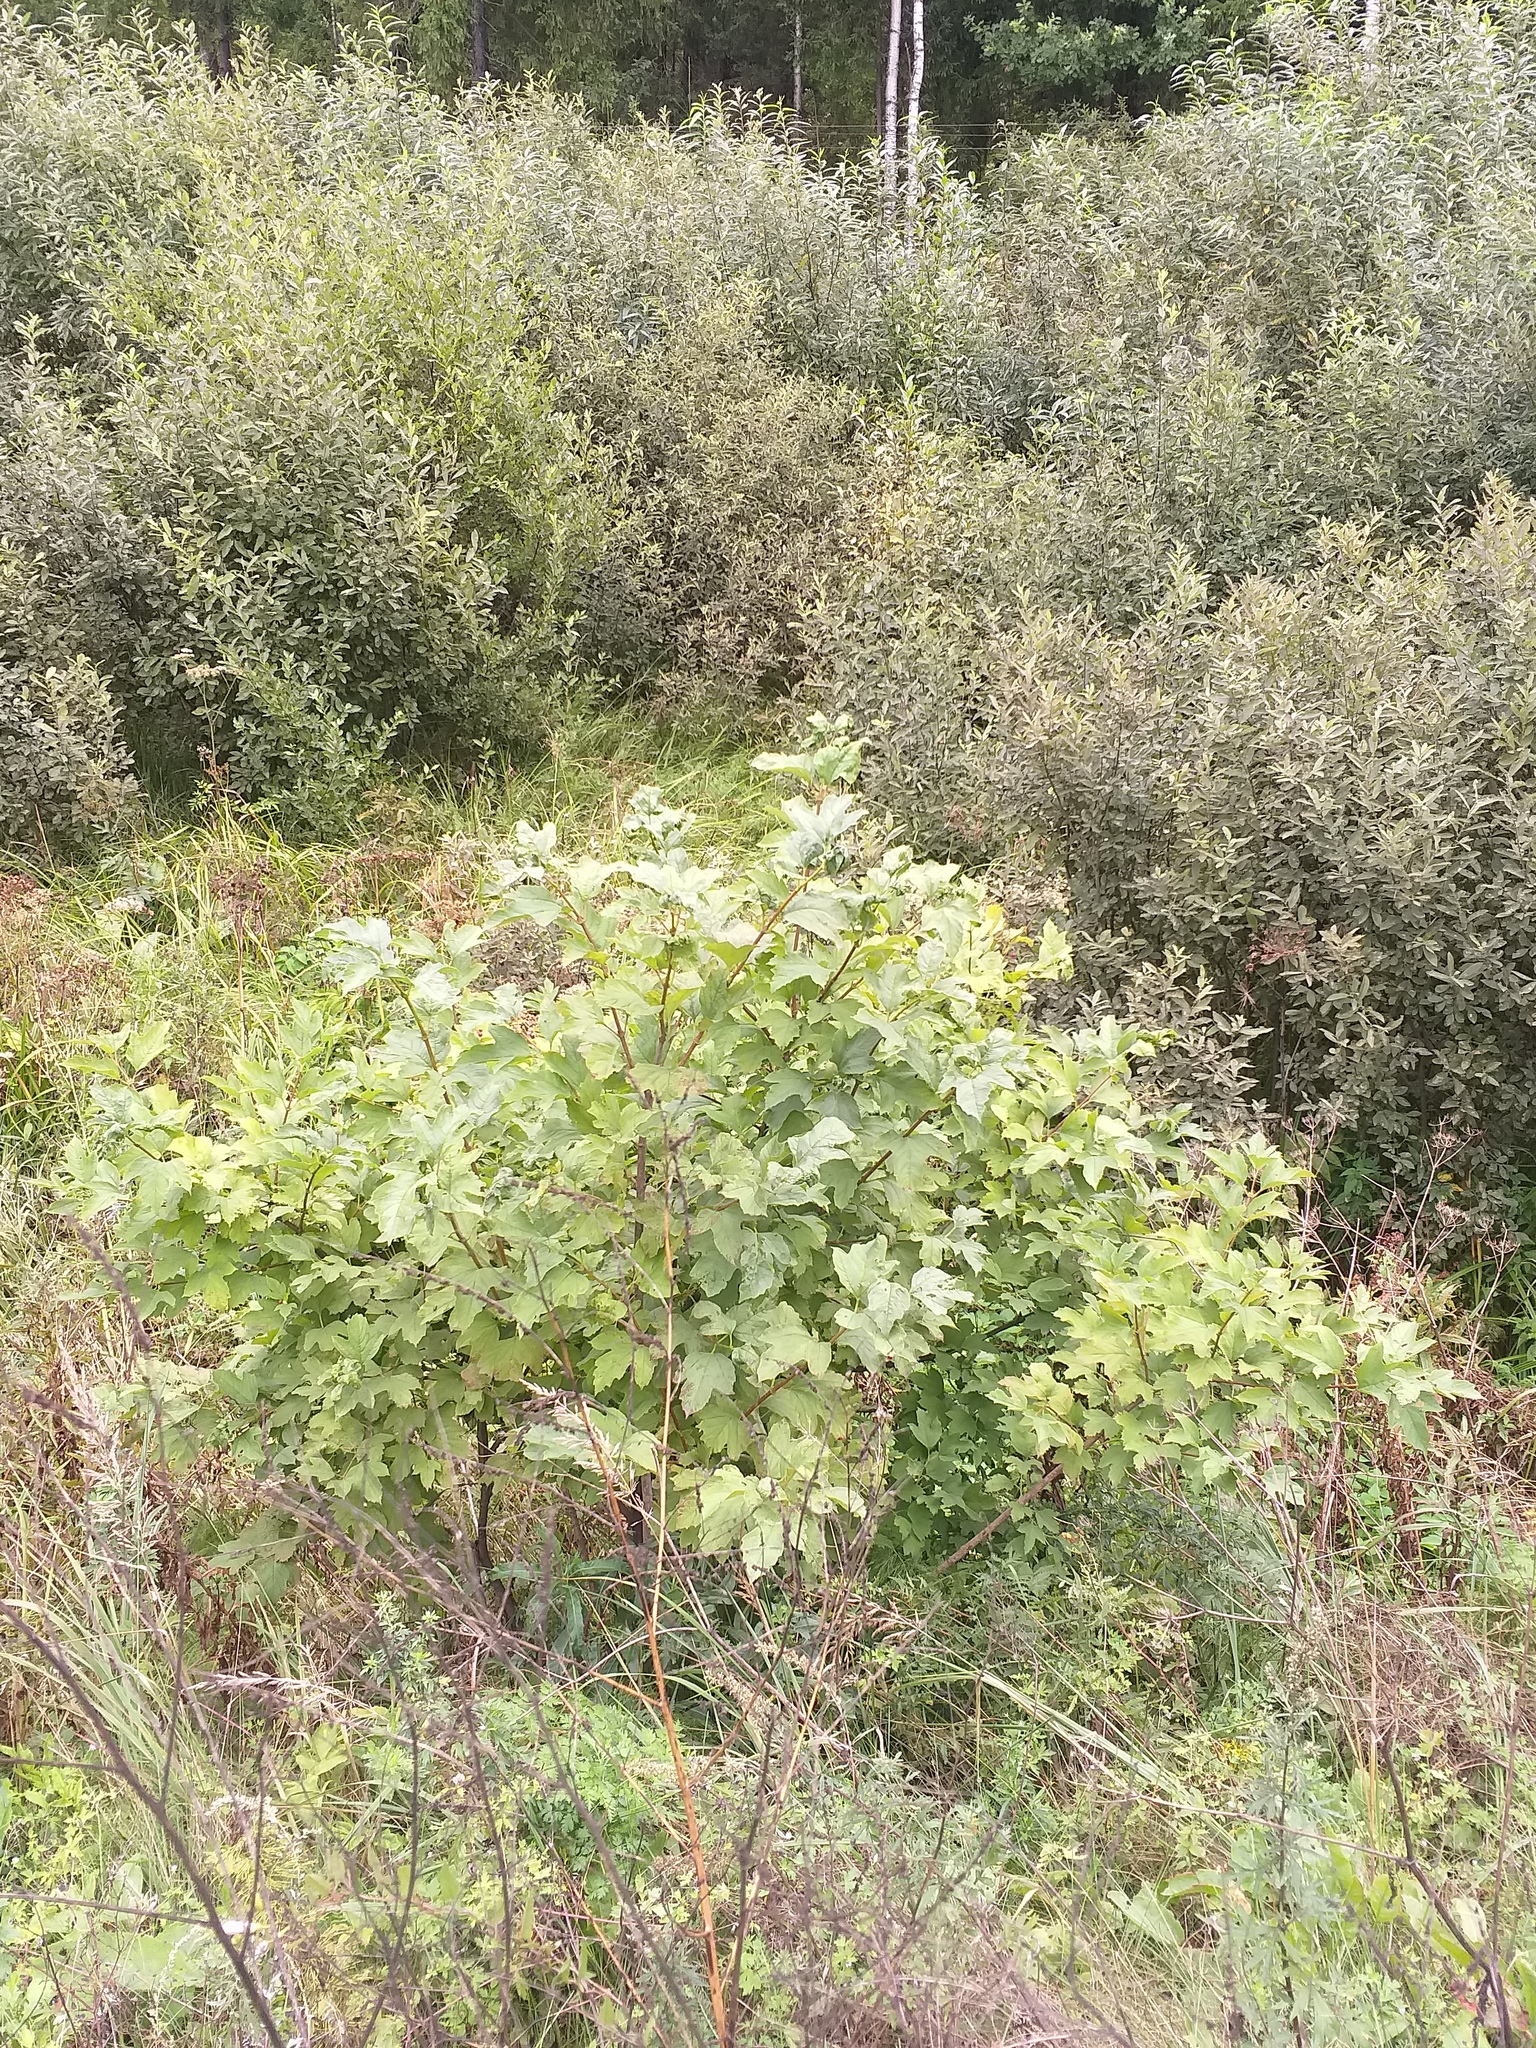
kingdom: Plantae
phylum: Tracheophyta
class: Magnoliopsida
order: Dipsacales
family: Viburnaceae
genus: Viburnum
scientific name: Viburnum opulus
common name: Guelder-rose
